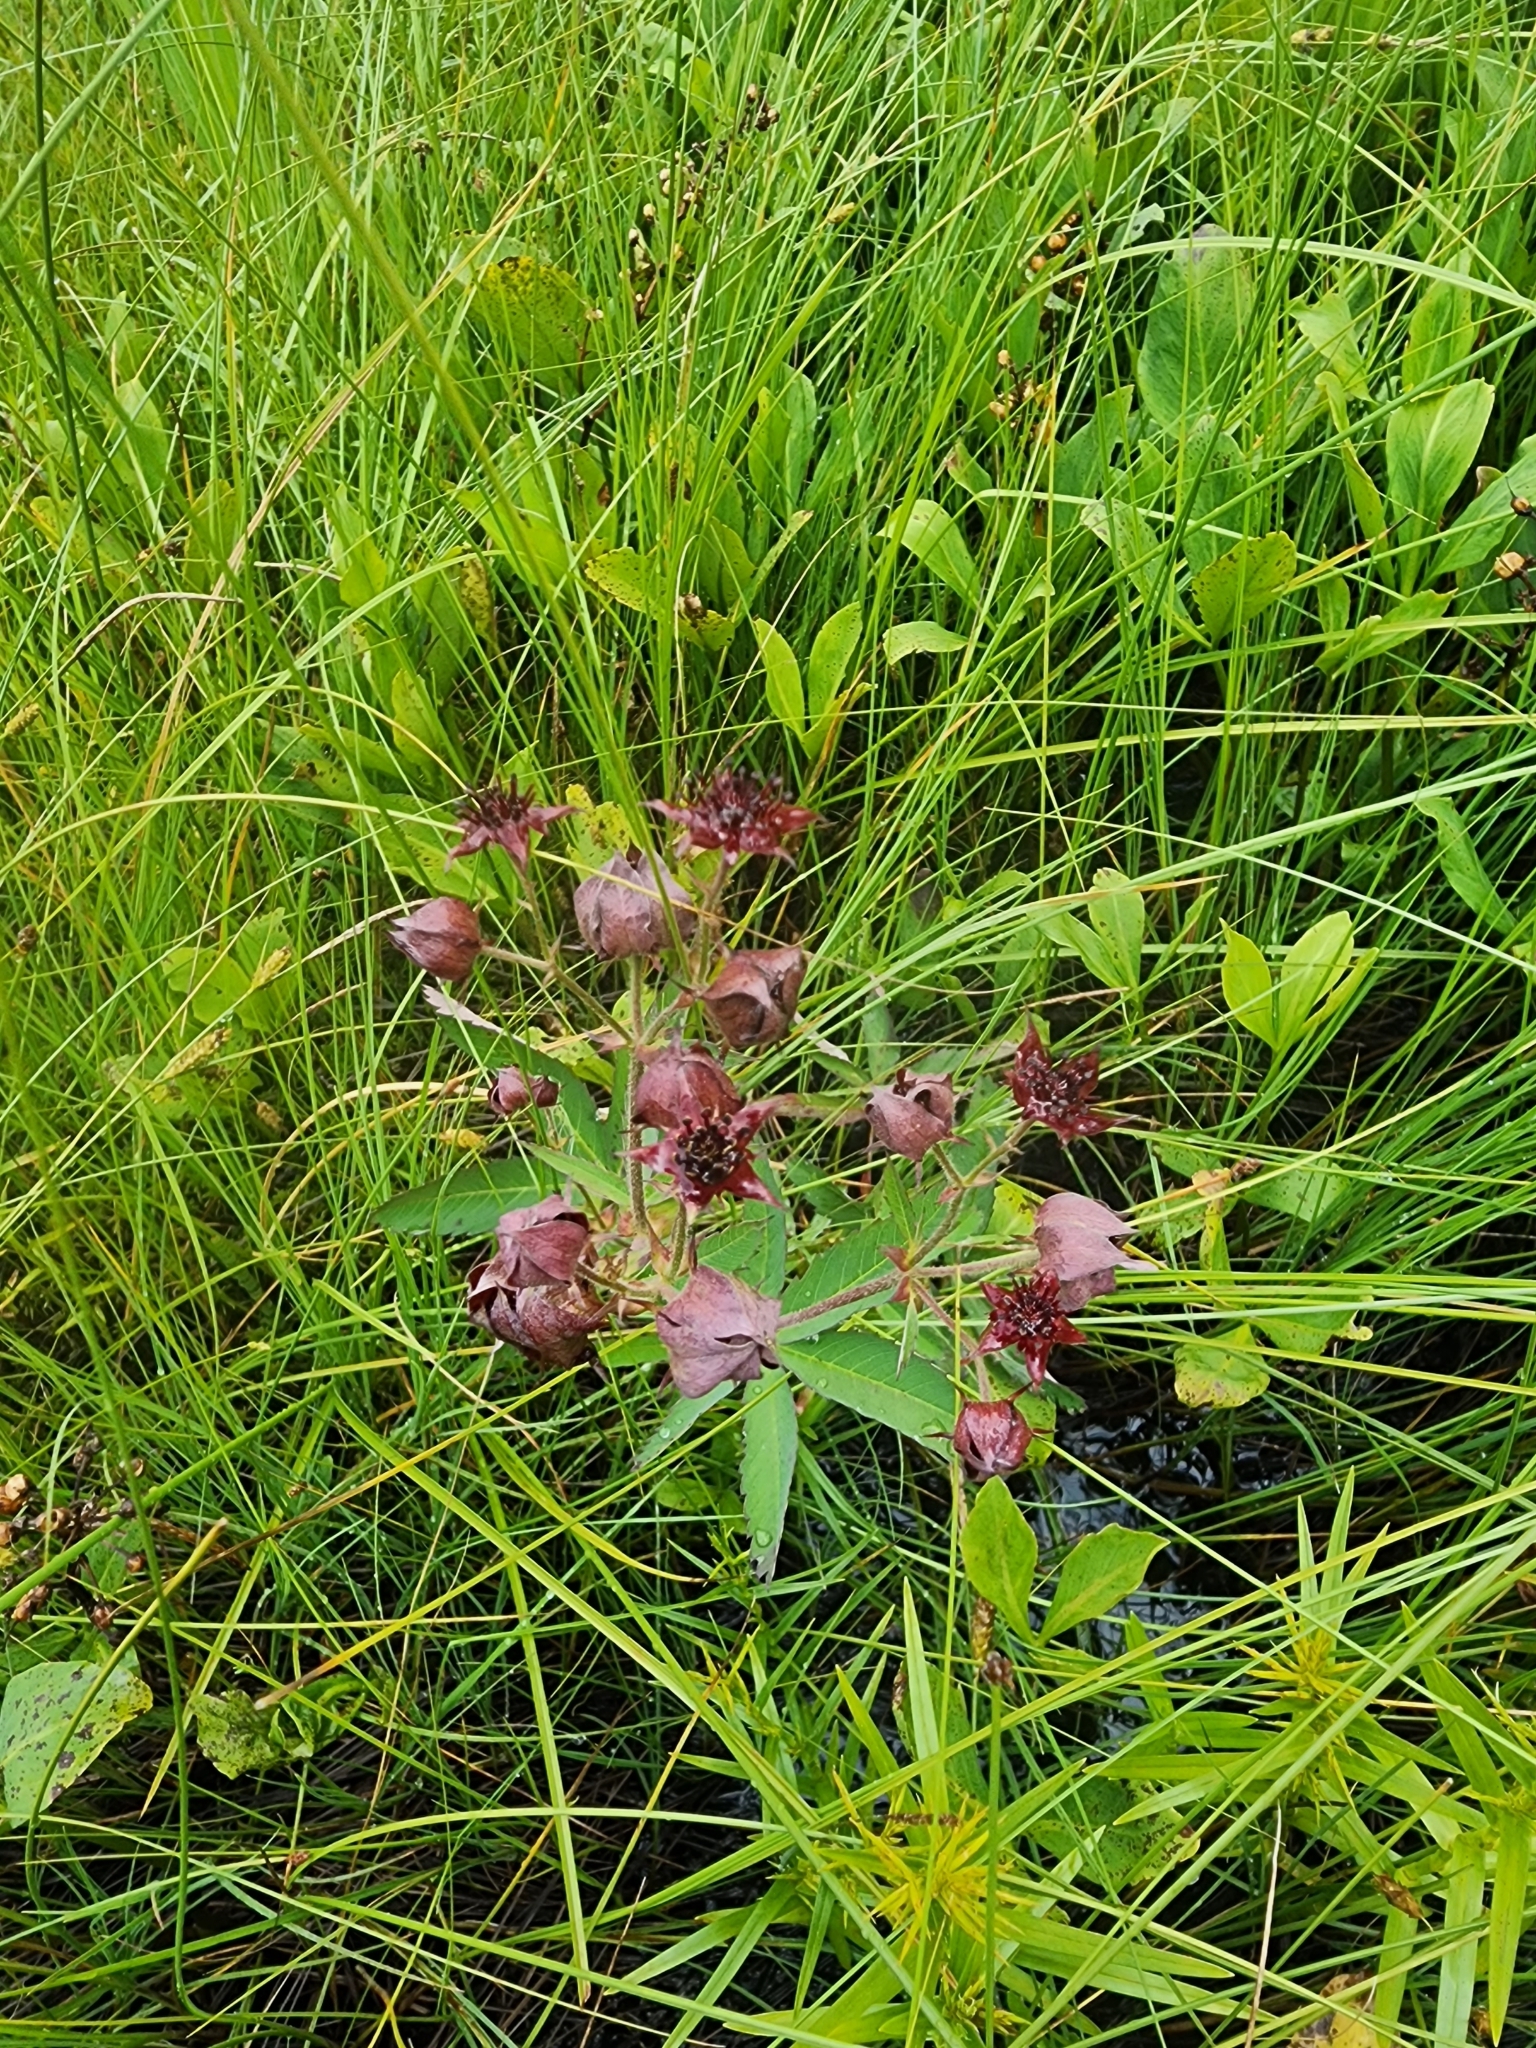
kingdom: Plantae
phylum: Tracheophyta
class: Magnoliopsida
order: Rosales
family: Rosaceae
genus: Comarum
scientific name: Comarum palustre
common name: Marsh cinquefoil
